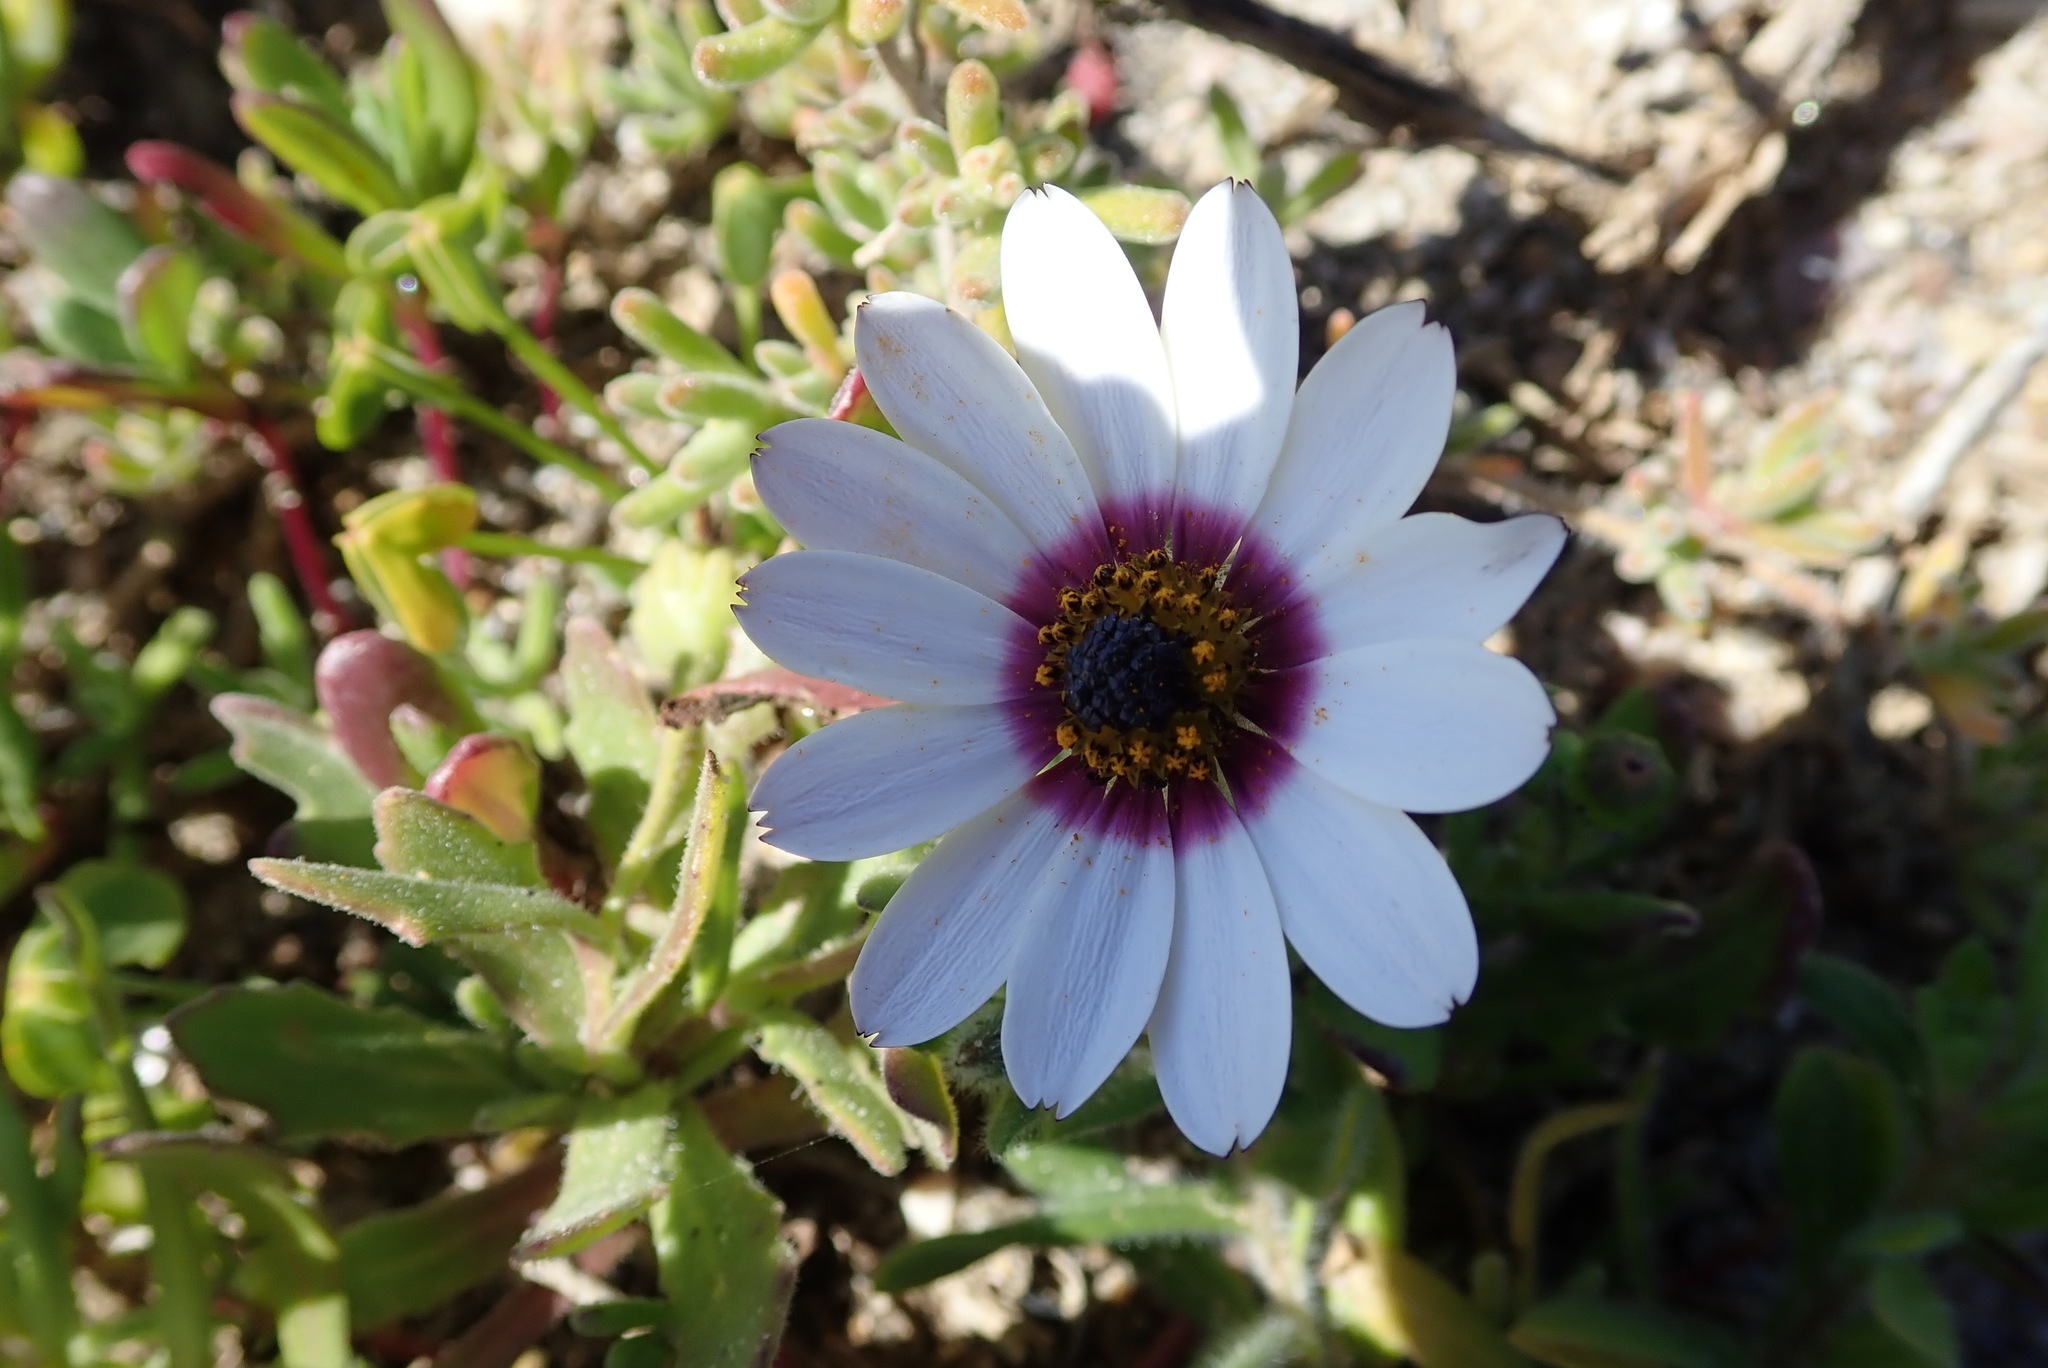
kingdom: Plantae
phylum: Tracheophyta
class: Magnoliopsida
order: Asterales
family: Asteraceae
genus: Dimorphotheca
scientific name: Dimorphotheca pluvialis
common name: Weather prophet
